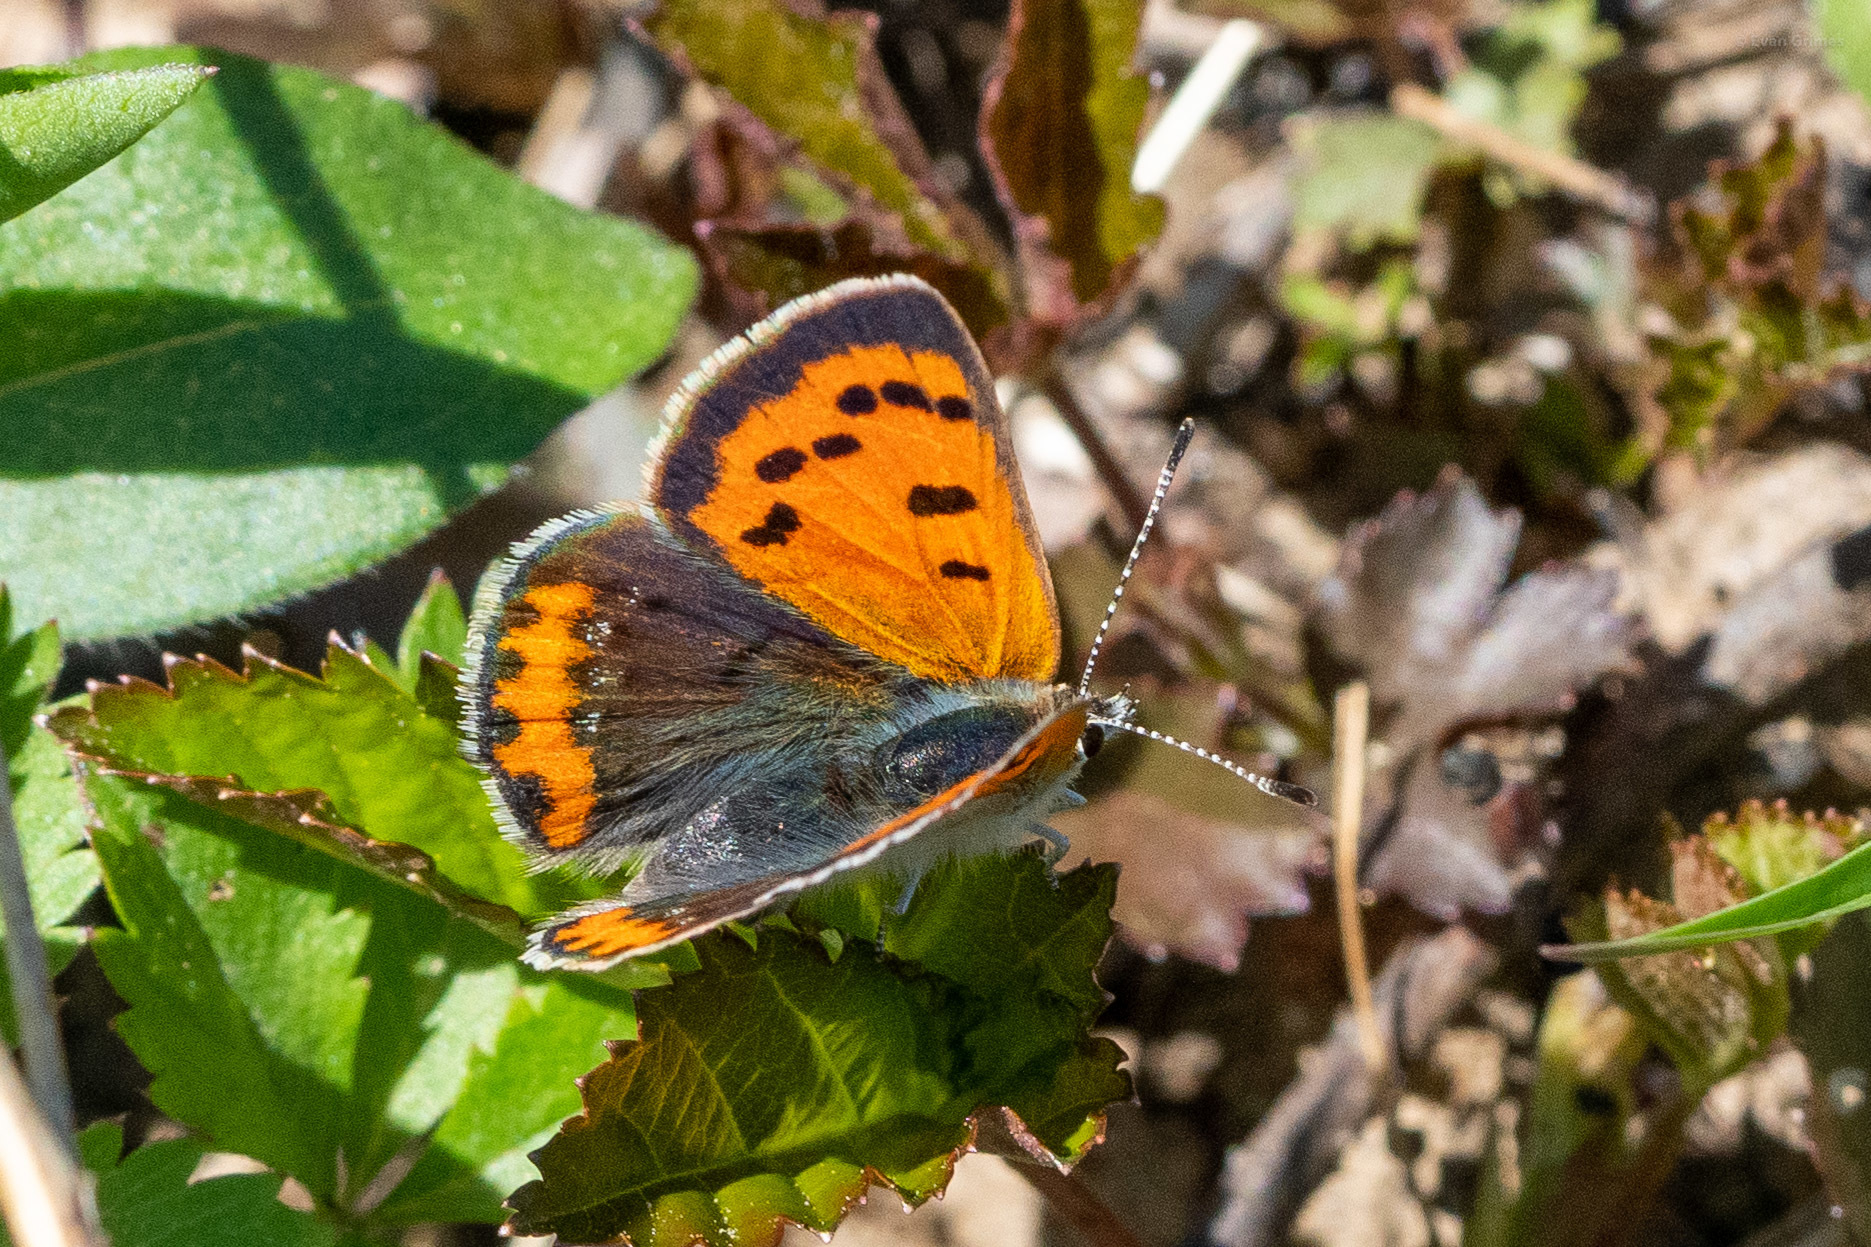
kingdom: Animalia
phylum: Arthropoda
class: Insecta
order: Lepidoptera
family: Lycaenidae
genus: Lycaena
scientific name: Lycaena hypophlaeas
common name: American copper
